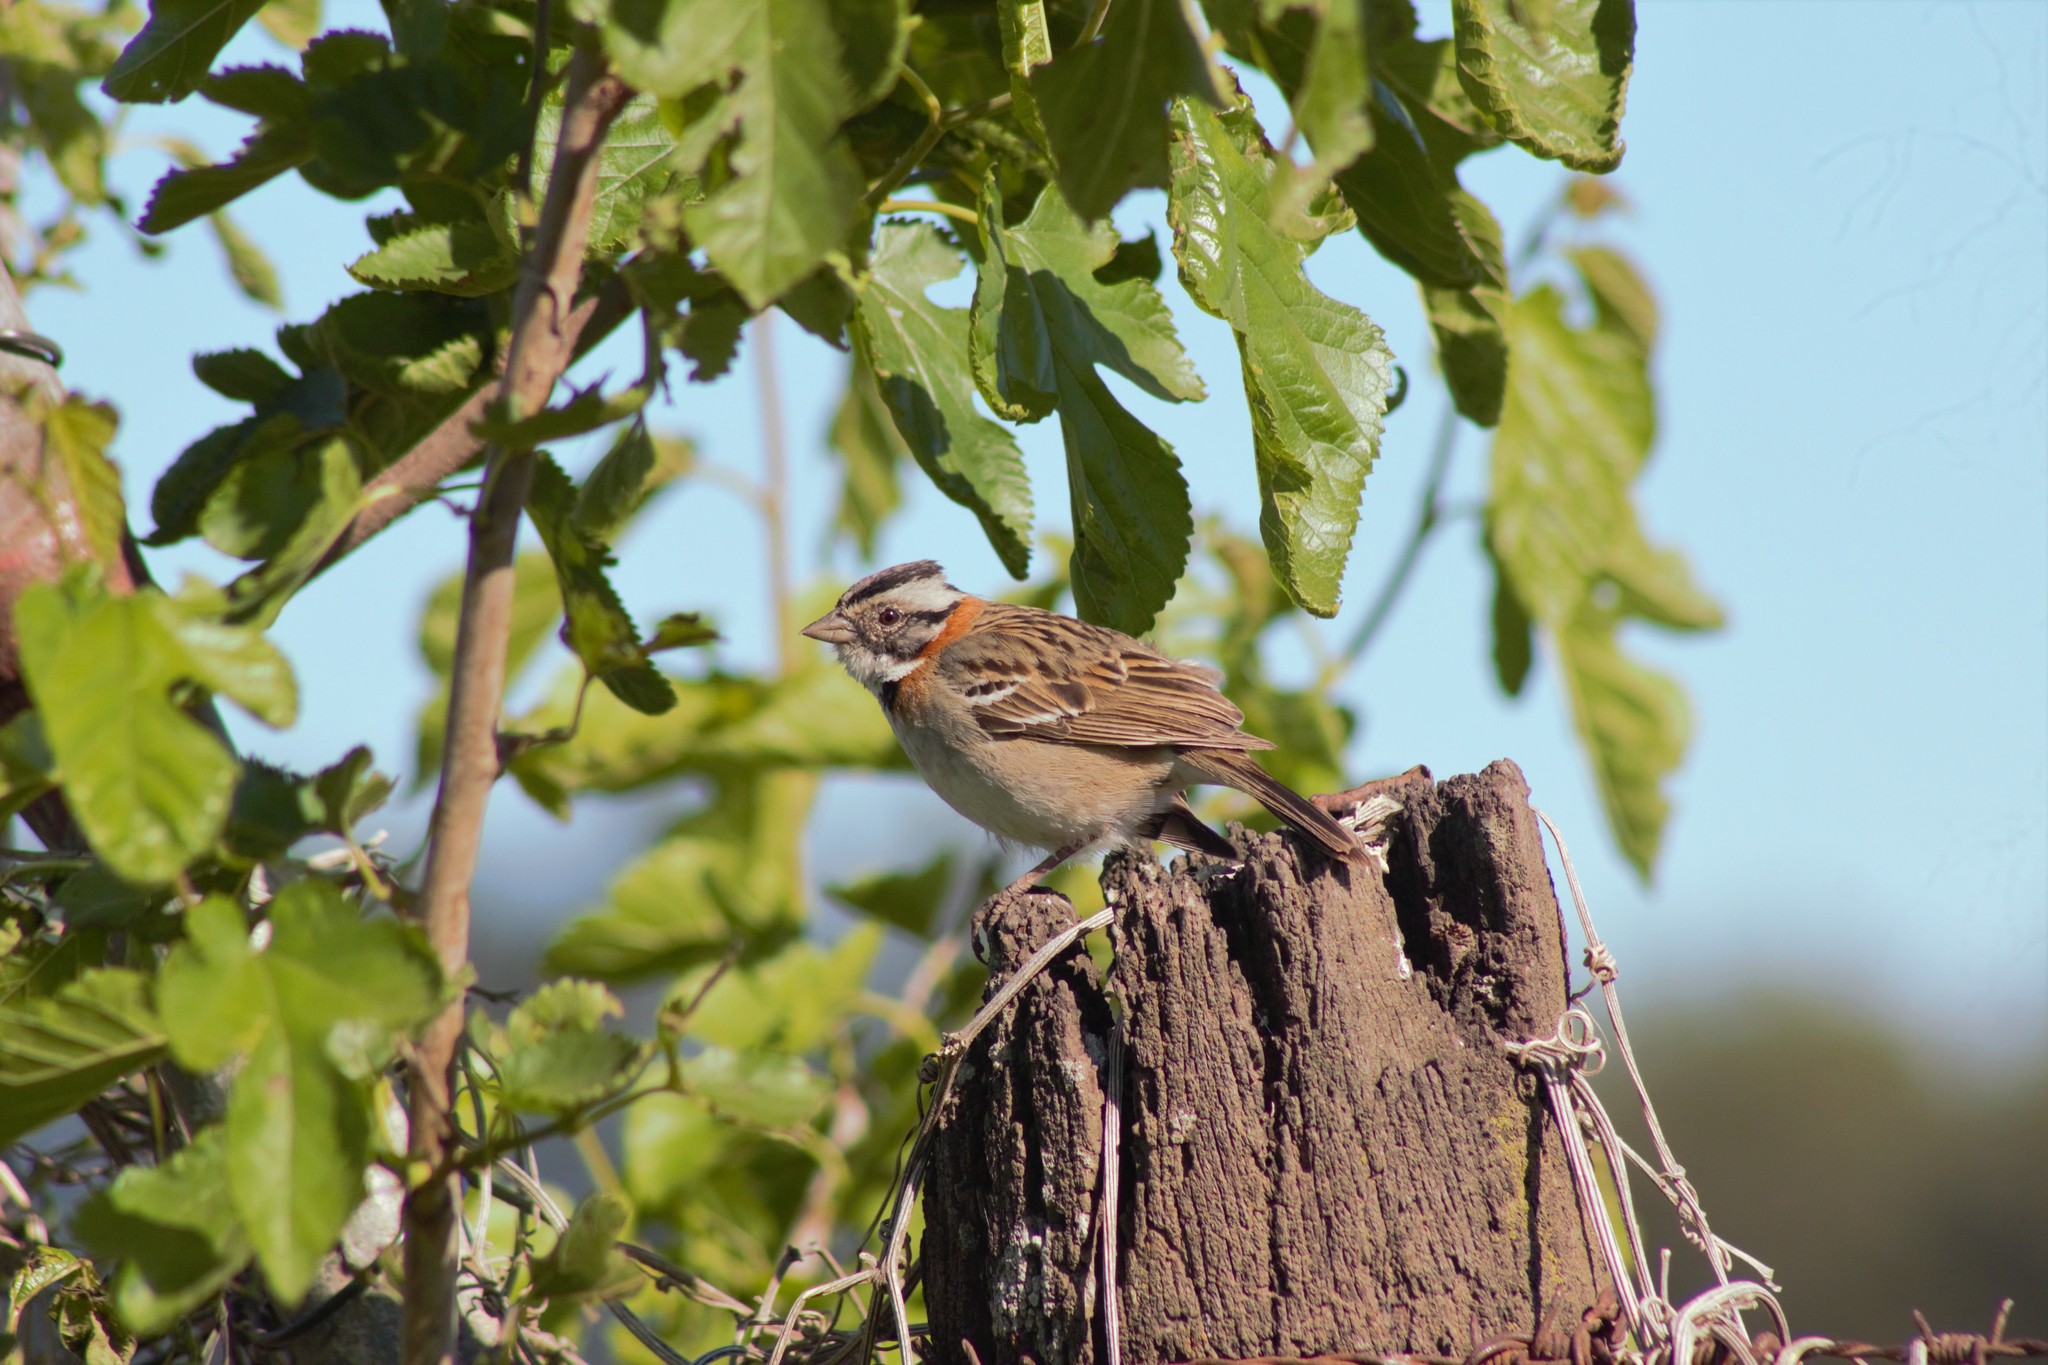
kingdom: Animalia
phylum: Chordata
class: Aves
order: Passeriformes
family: Passerellidae
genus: Zonotrichia
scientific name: Zonotrichia capensis
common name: Rufous-collared sparrow
